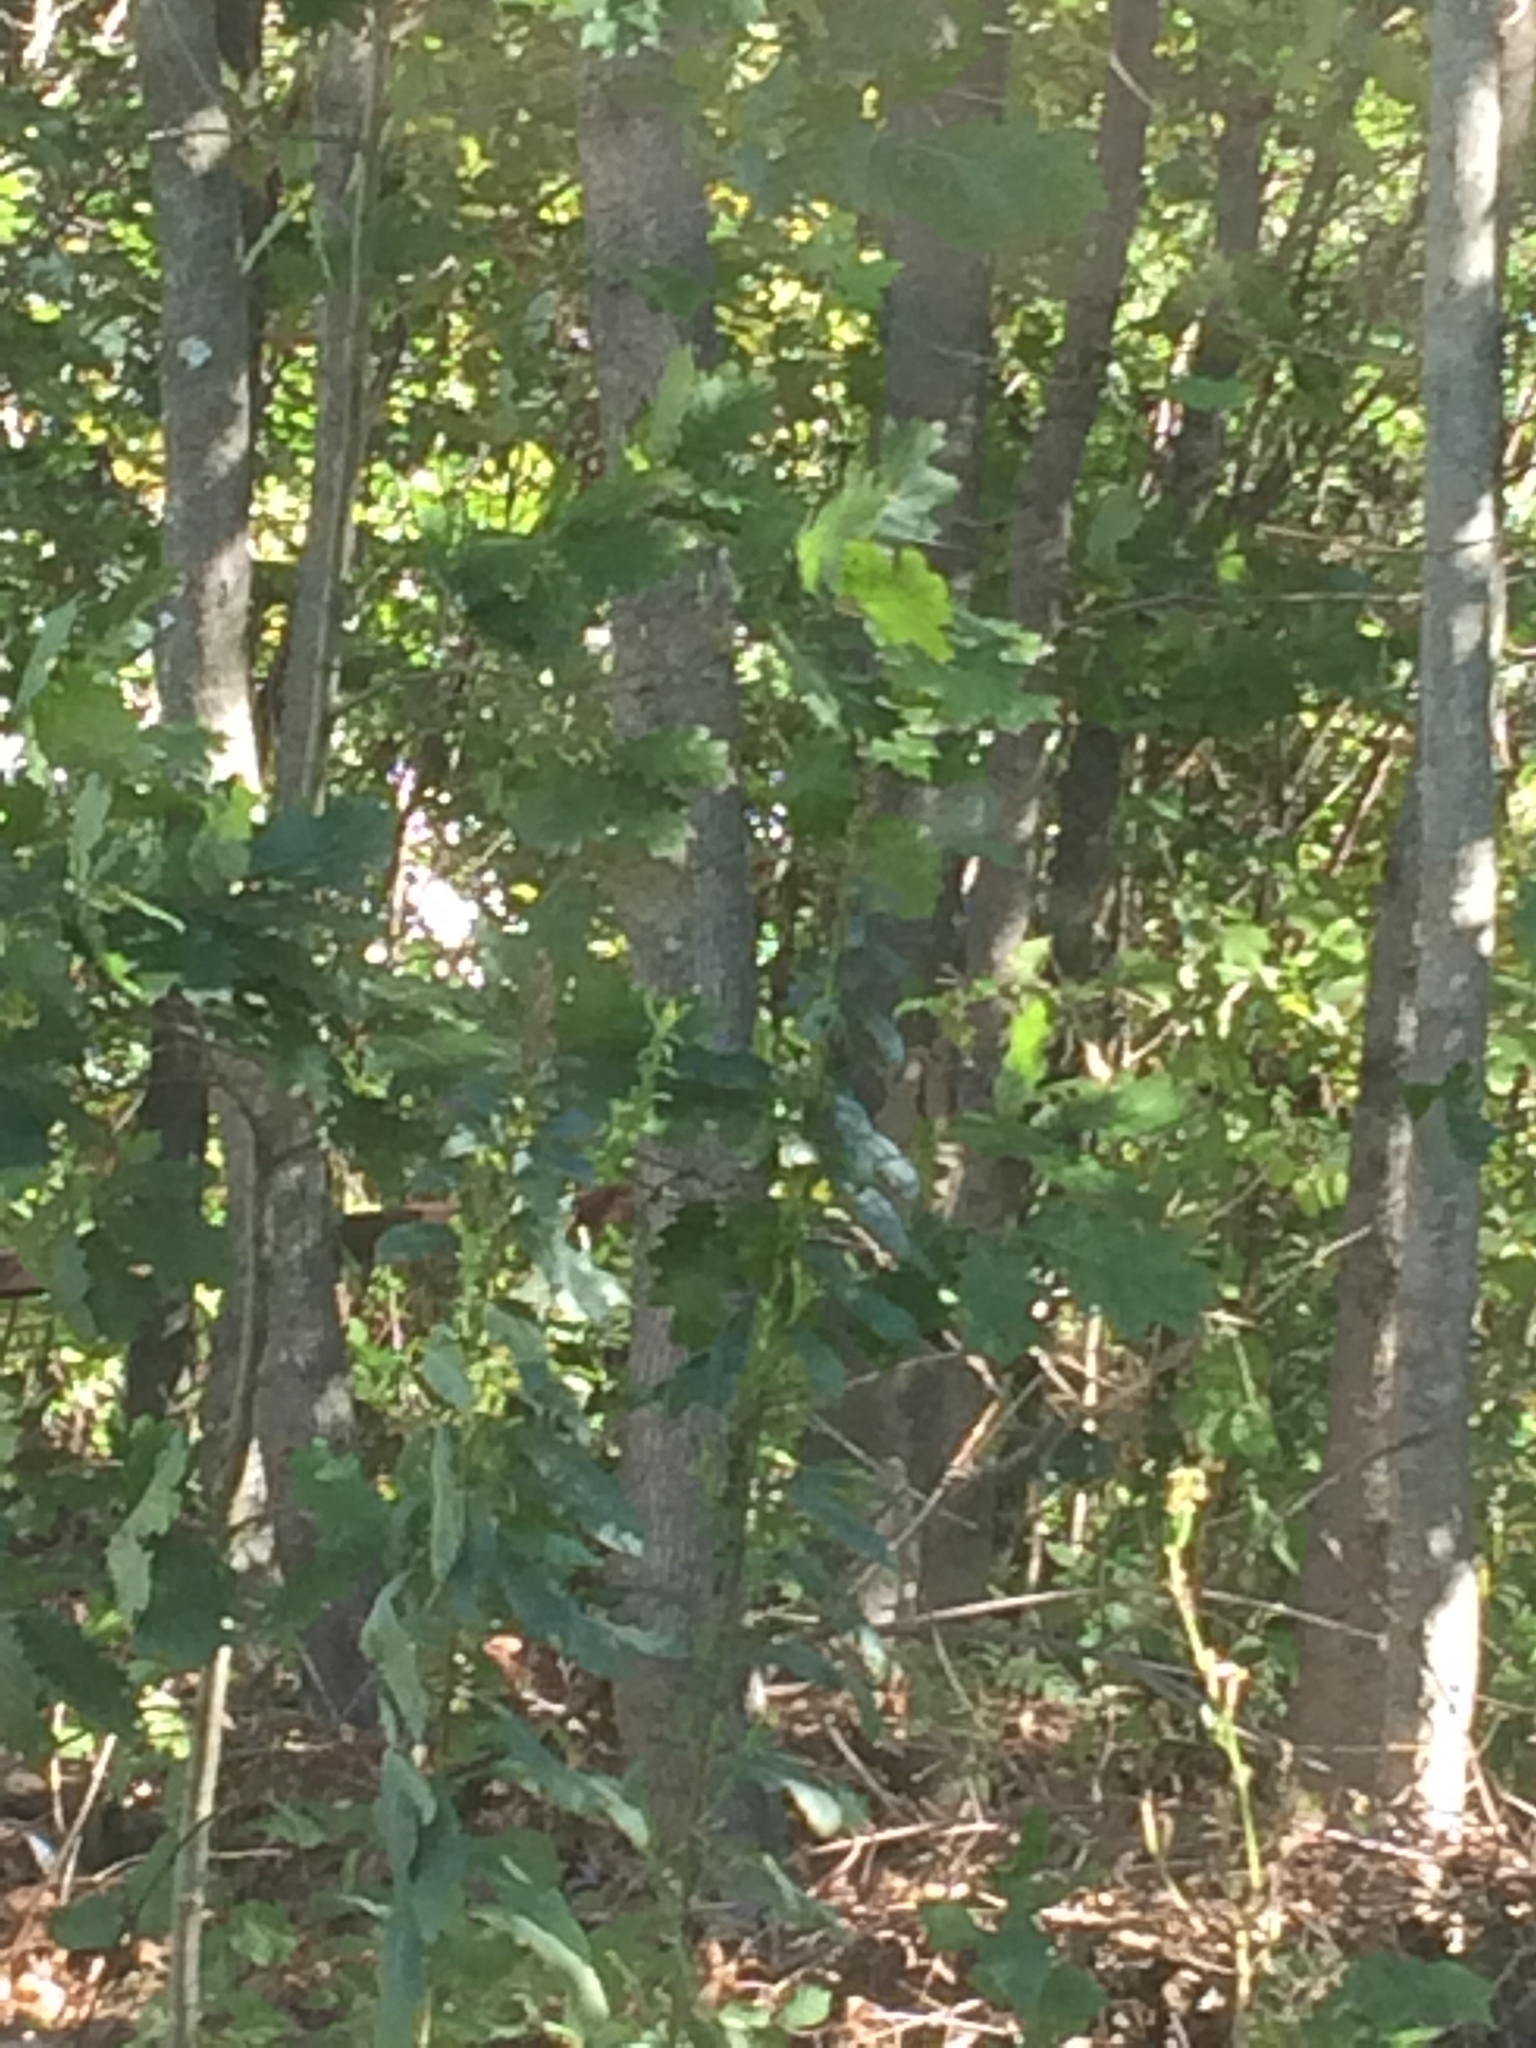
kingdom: Plantae
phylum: Tracheophyta
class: Magnoliopsida
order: Fagales
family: Fagaceae
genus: Quercus
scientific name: Quercus rubra
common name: Red oak
